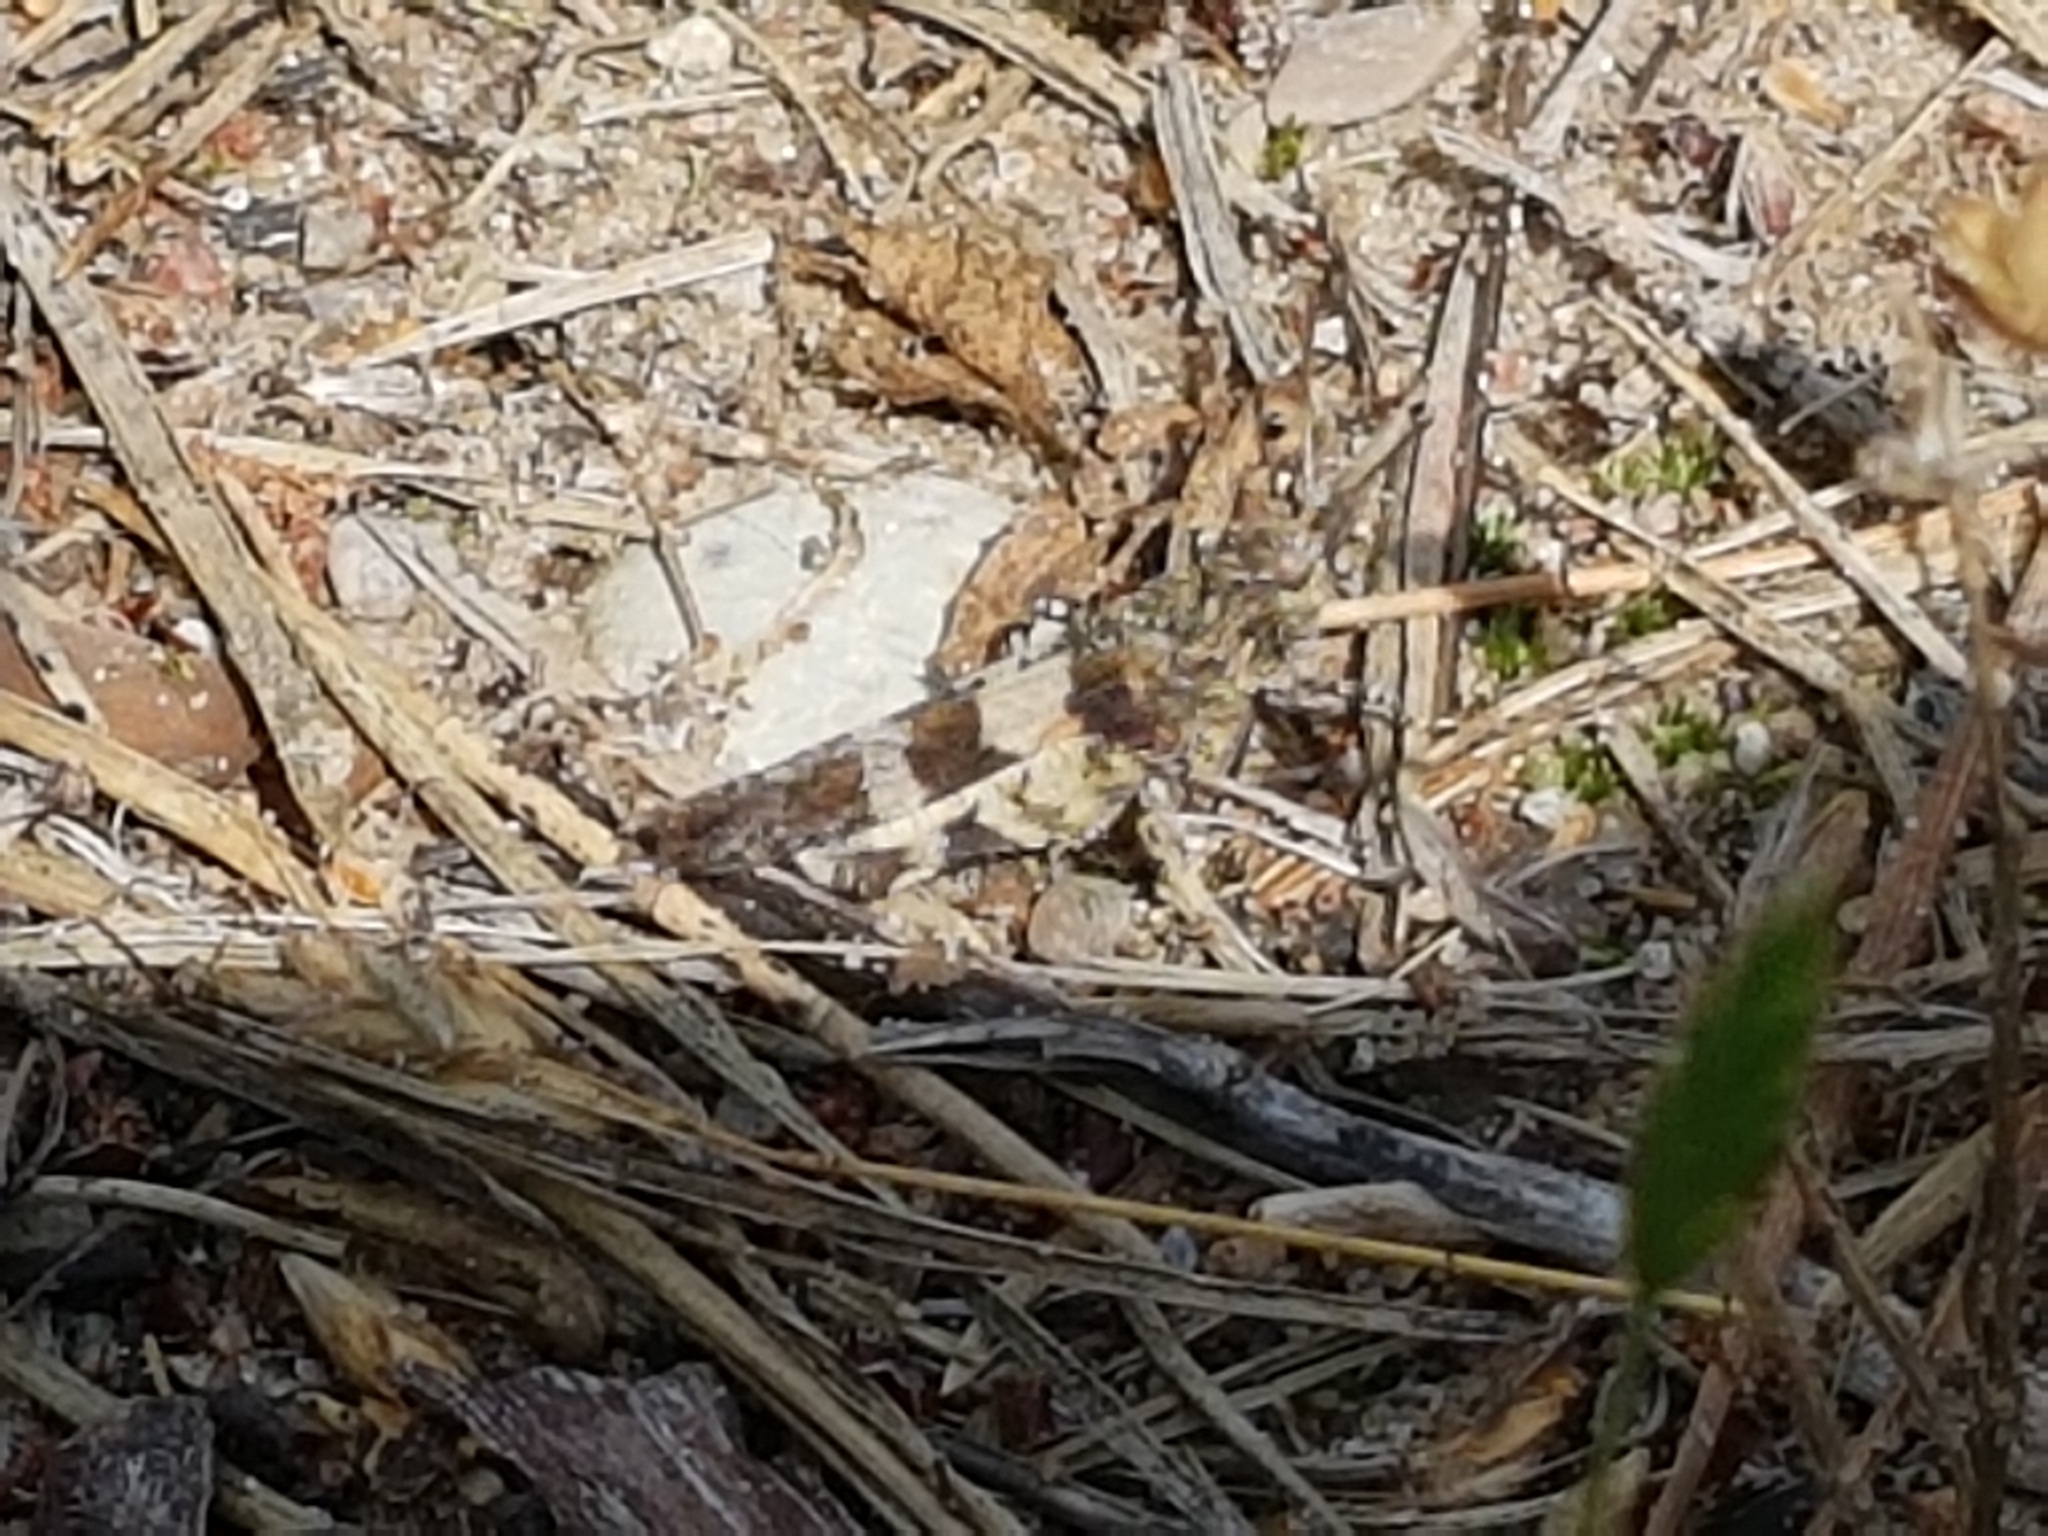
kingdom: Animalia
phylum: Arthropoda
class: Insecta
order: Orthoptera
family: Acrididae
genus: Oedipoda
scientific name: Oedipoda caerulescens
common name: Blue-winged grasshopper
